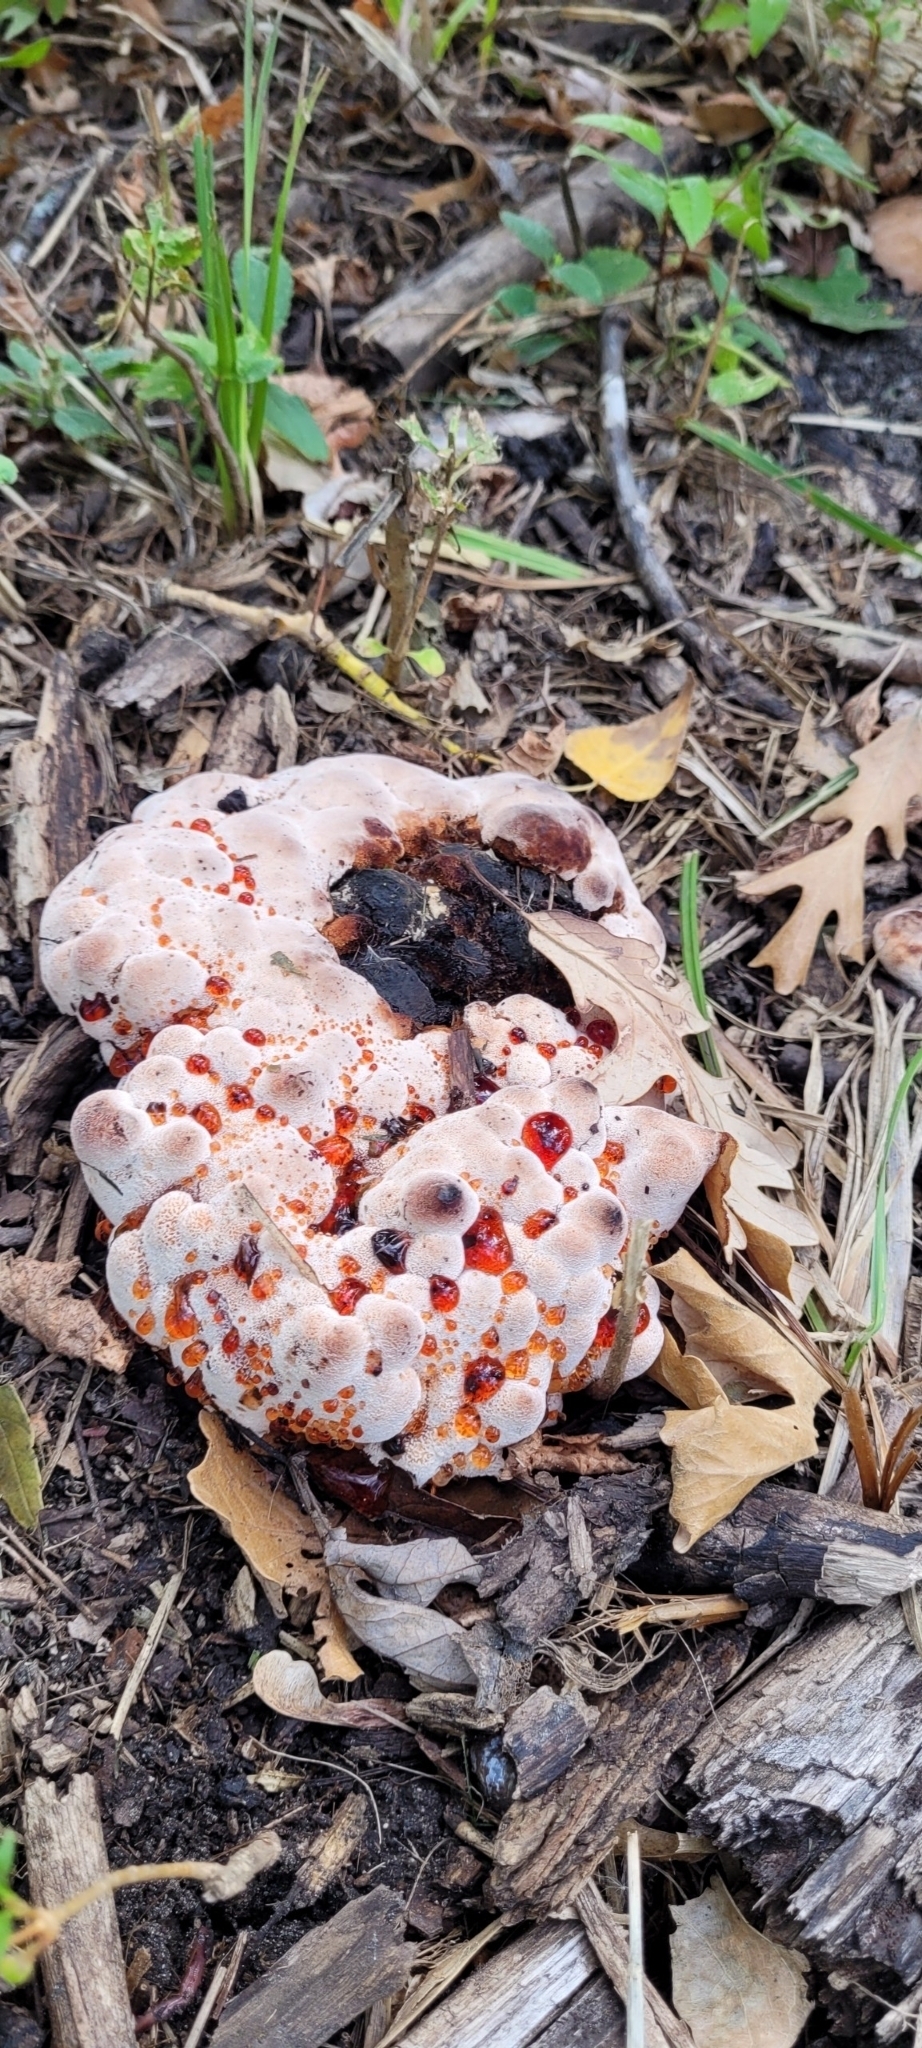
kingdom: Fungi
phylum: Basidiomycota
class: Agaricomycetes
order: Polyporales
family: Podoscyphaceae
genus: Abortiporus
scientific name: Abortiporus biennis
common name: Blushing rosette
